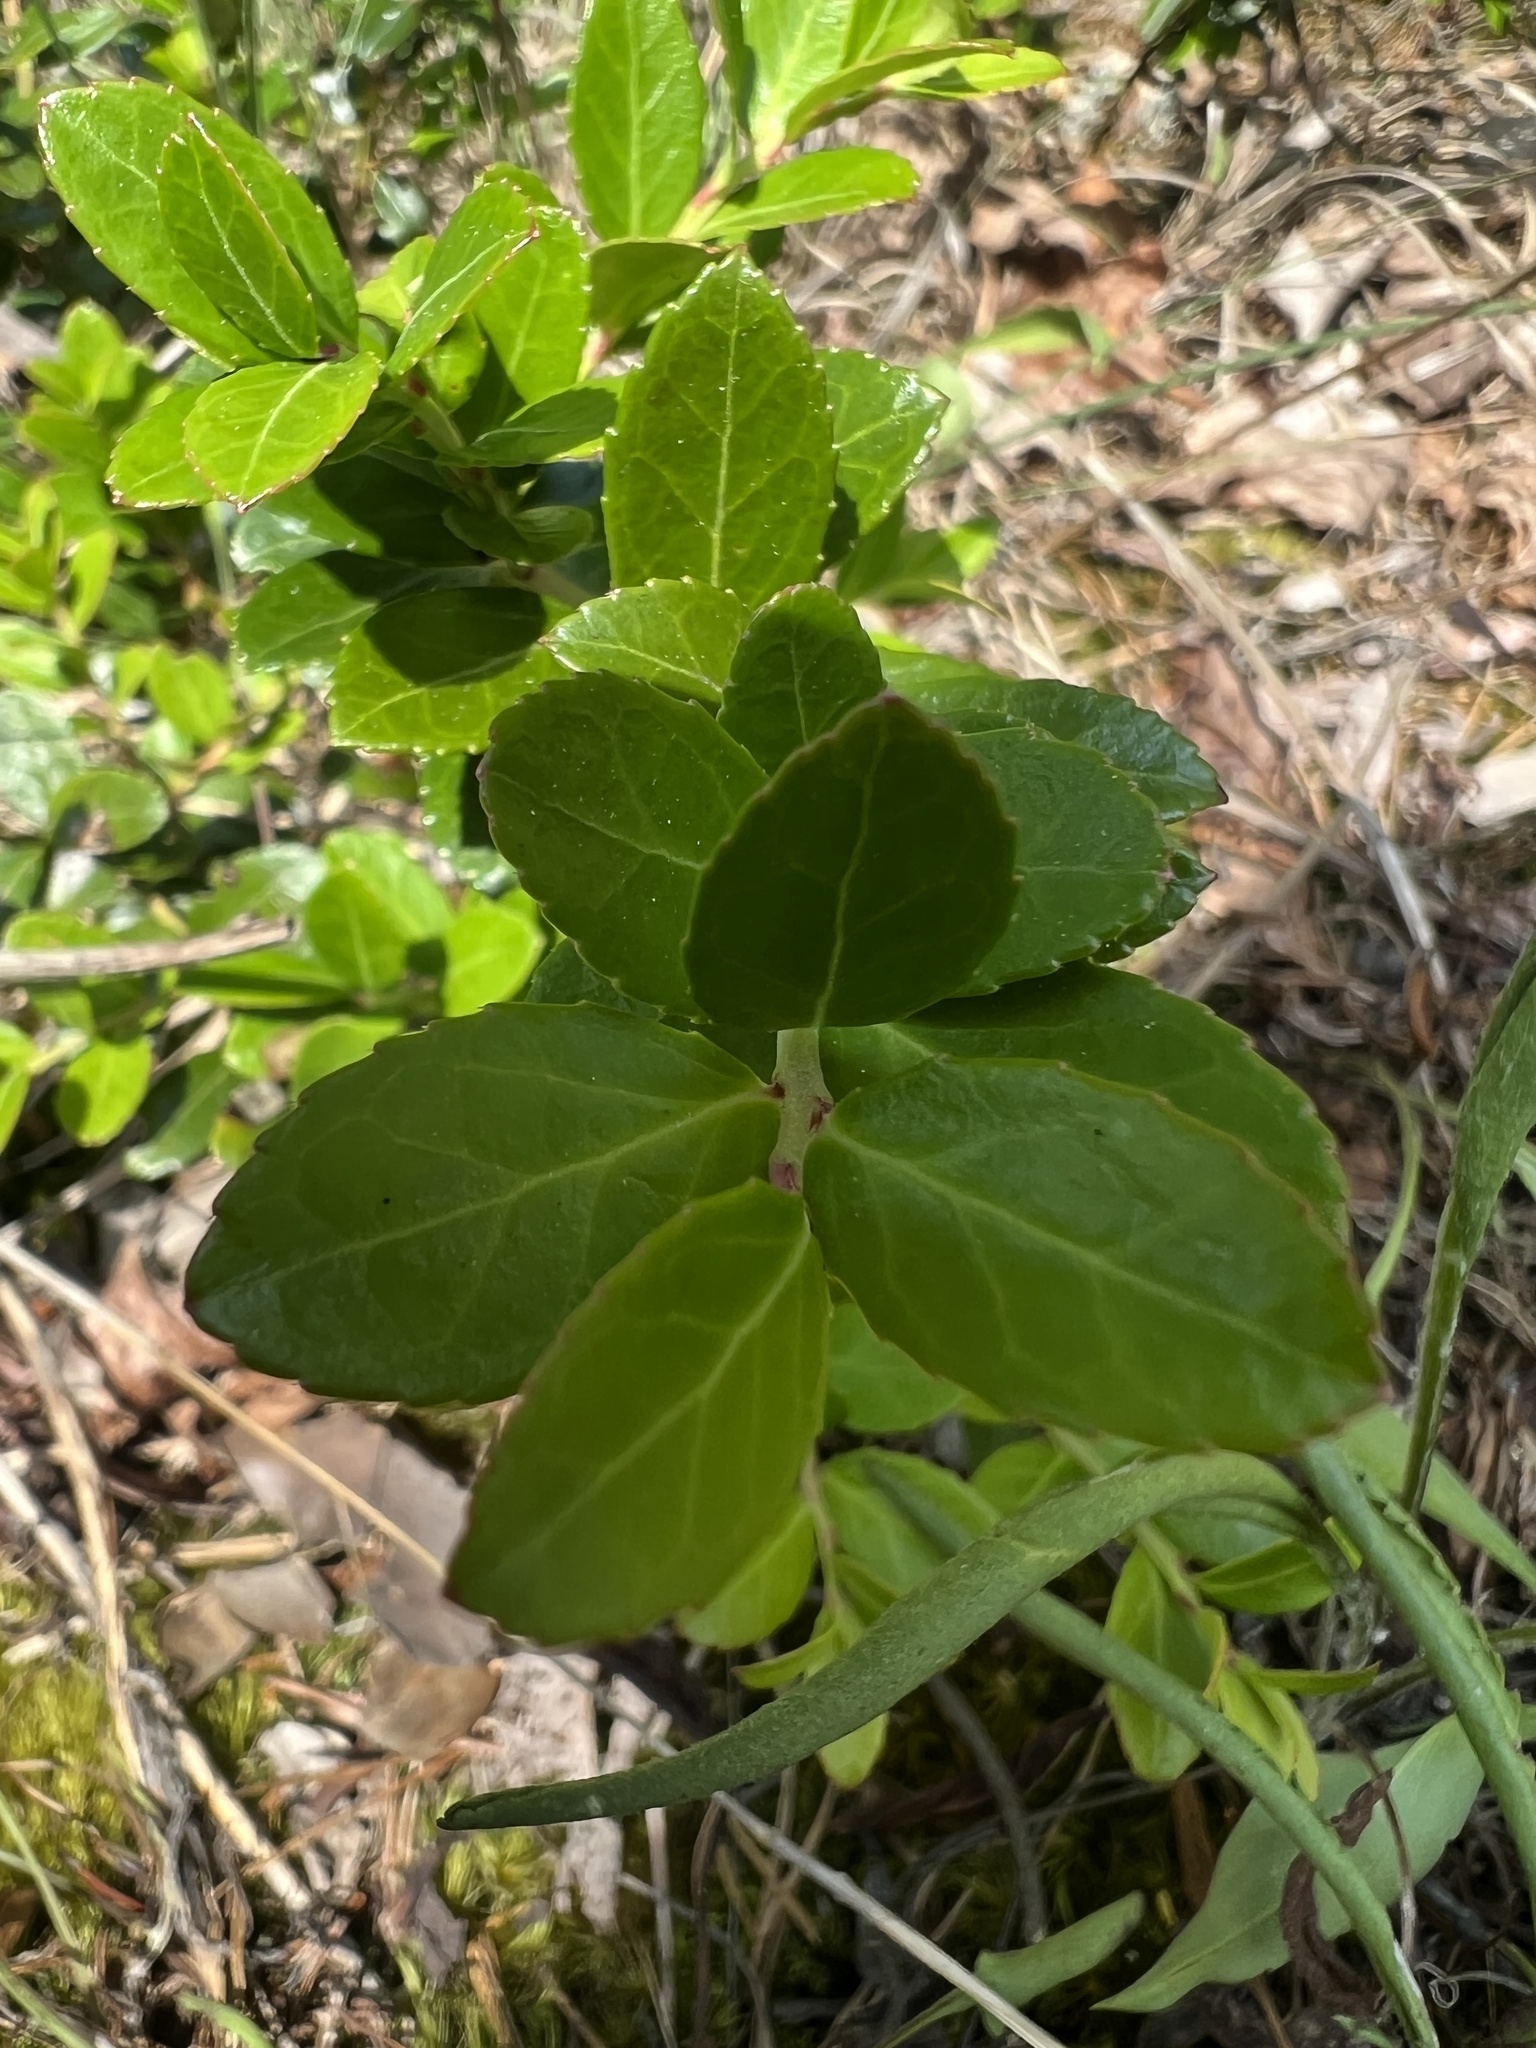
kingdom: Plantae
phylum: Tracheophyta
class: Magnoliopsida
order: Ericales
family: Ericaceae
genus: Gaylussacia
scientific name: Gaylussacia brachycera
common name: Box huckleberry
